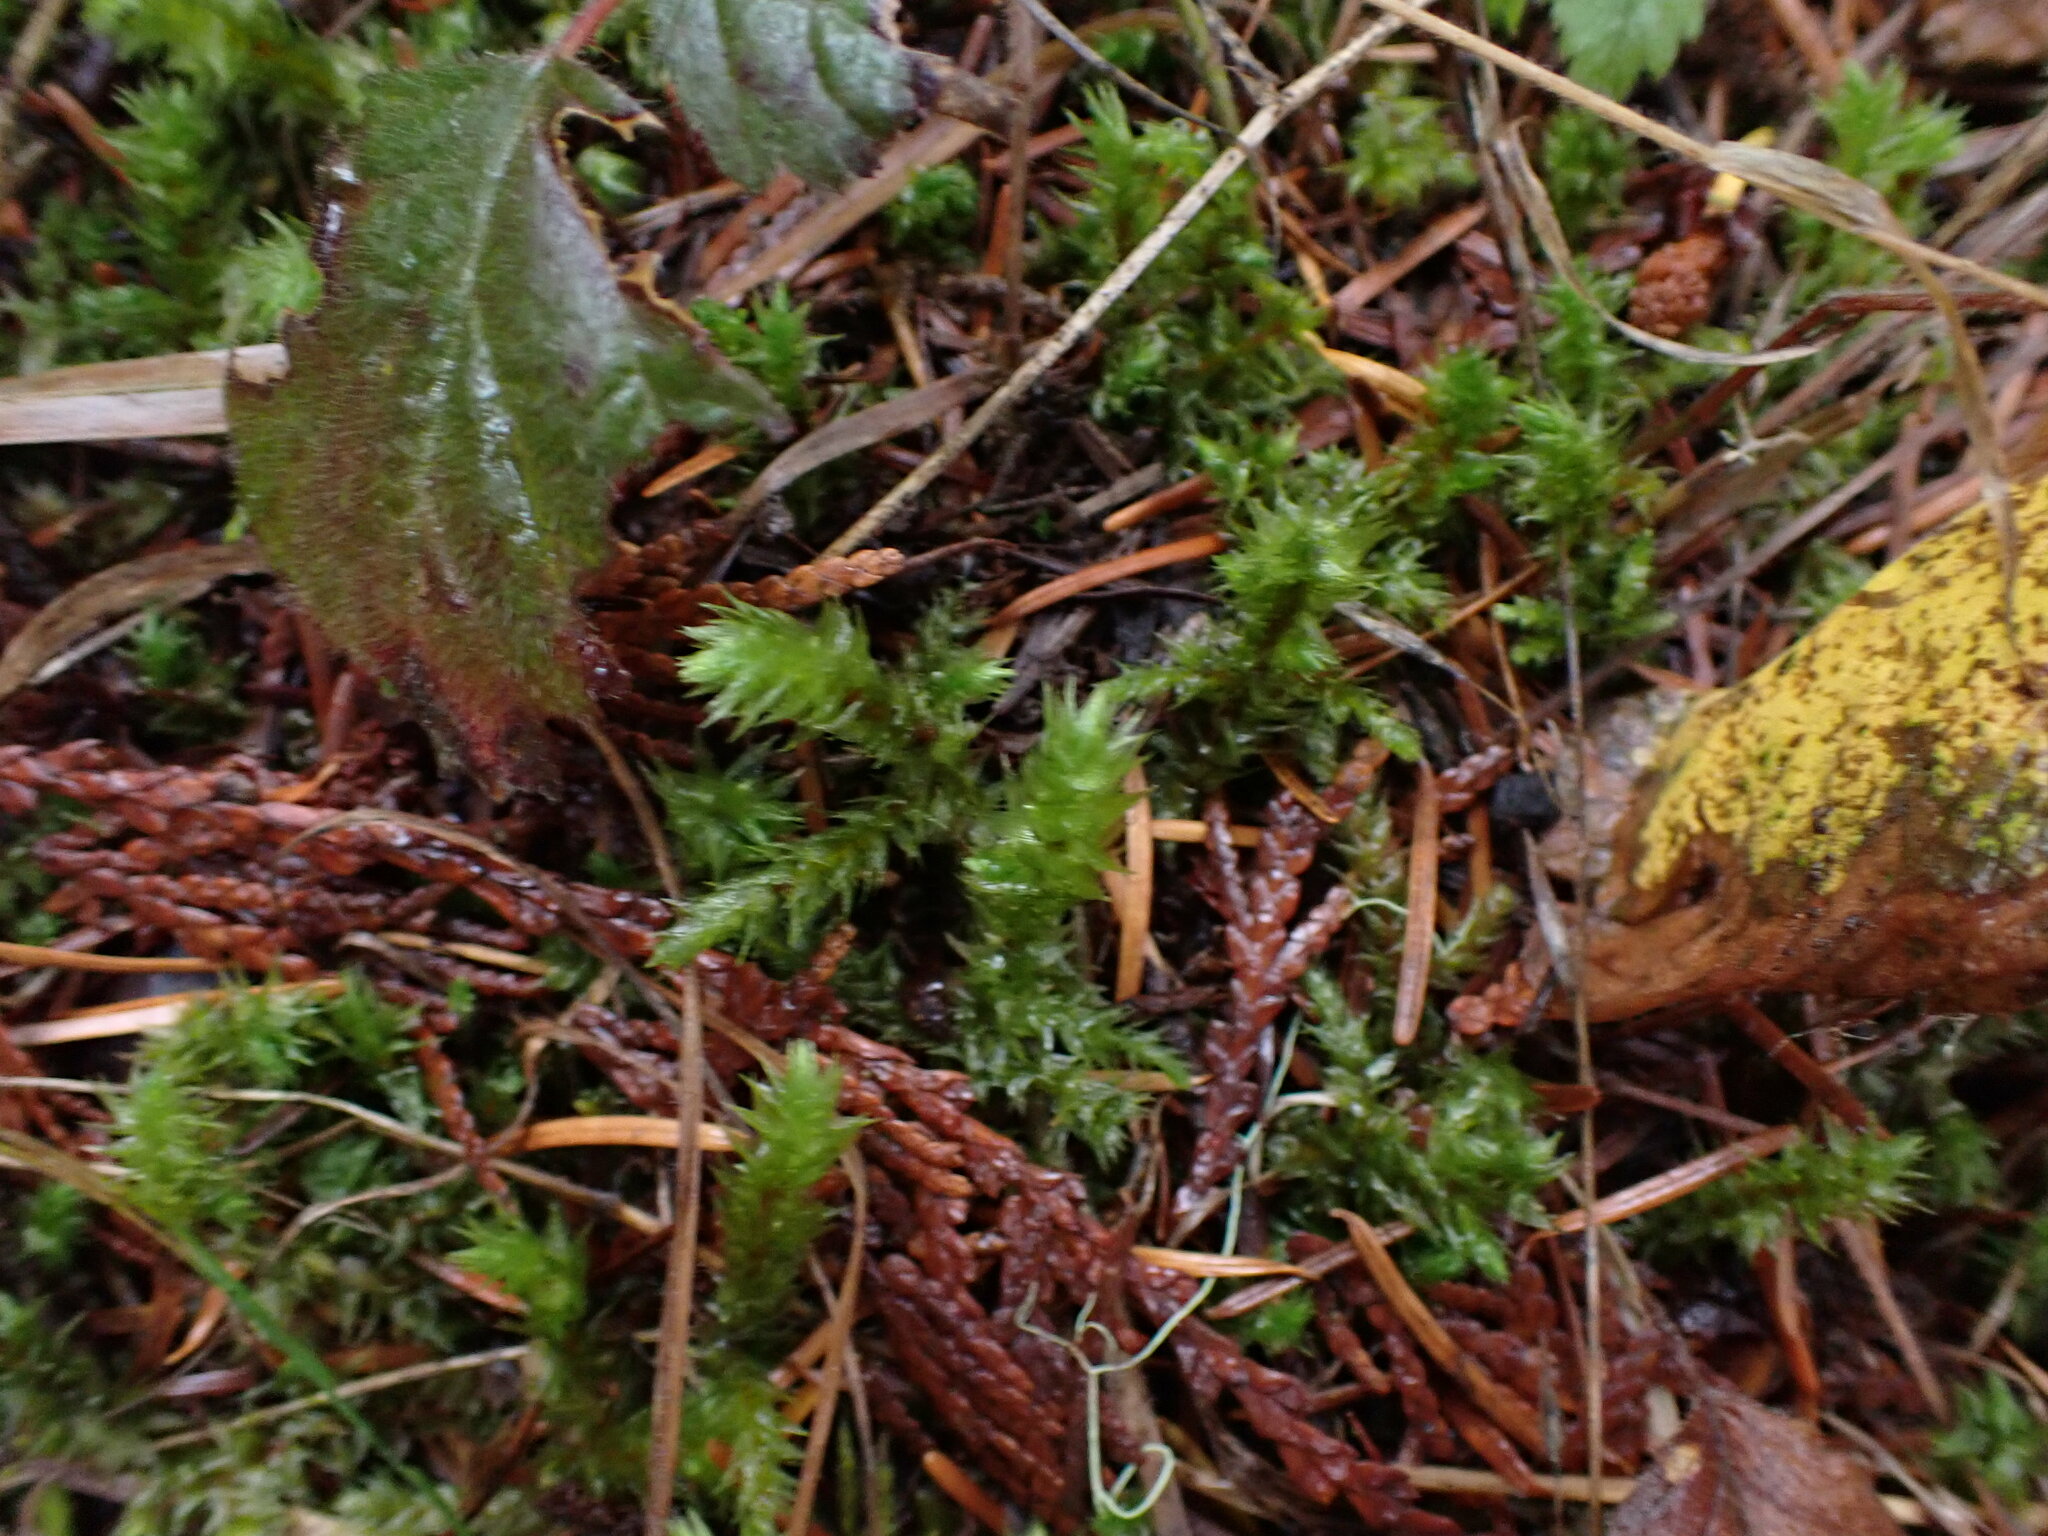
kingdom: Plantae
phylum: Bryophyta
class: Bryopsida
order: Hypnales
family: Hylocomiaceae
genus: Hylocomiadelphus
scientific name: Hylocomiadelphus triquetrus
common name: Rough goose neck moss
